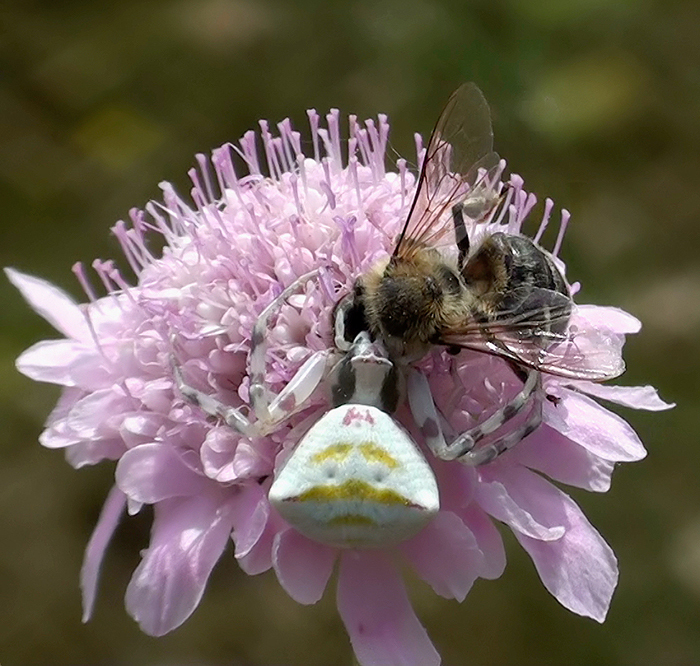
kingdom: Animalia
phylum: Arthropoda
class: Arachnida
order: Araneae
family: Thomisidae
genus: Thomisus
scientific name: Thomisus onustus
